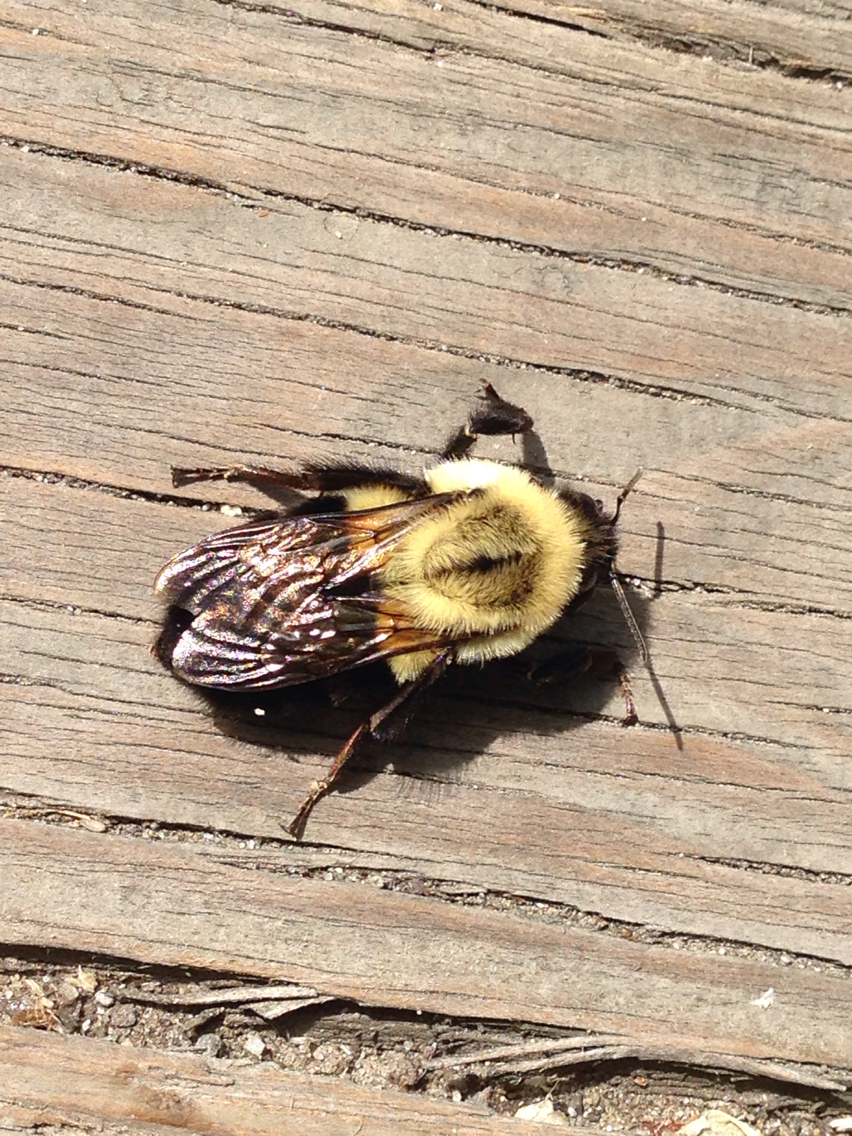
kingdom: Animalia
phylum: Arthropoda
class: Insecta
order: Hymenoptera
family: Apidae
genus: Bombus
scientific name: Bombus impatiens
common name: Common eastern bumble bee
